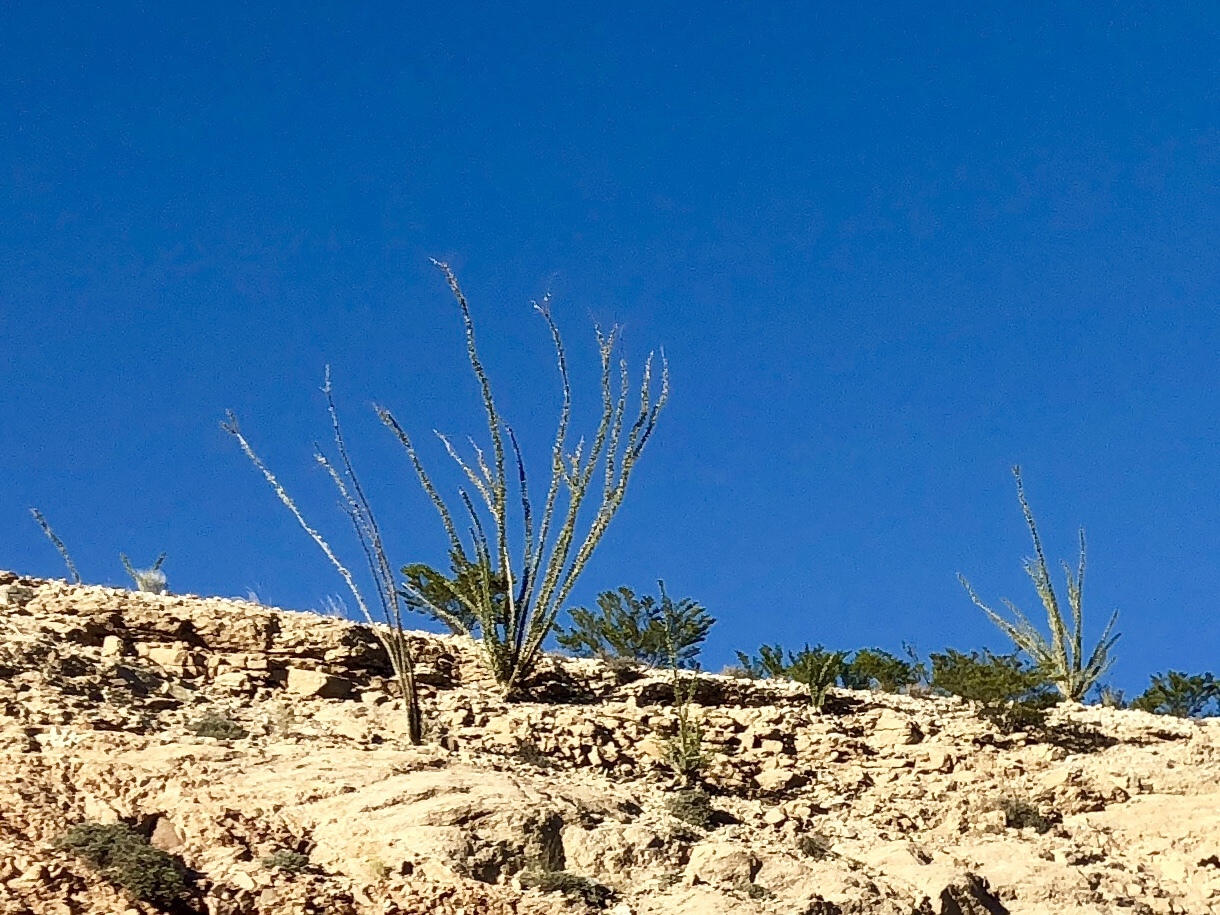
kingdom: Plantae
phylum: Tracheophyta
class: Magnoliopsida
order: Ericales
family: Fouquieriaceae
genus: Fouquieria
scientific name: Fouquieria splendens
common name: Vine-cactus
